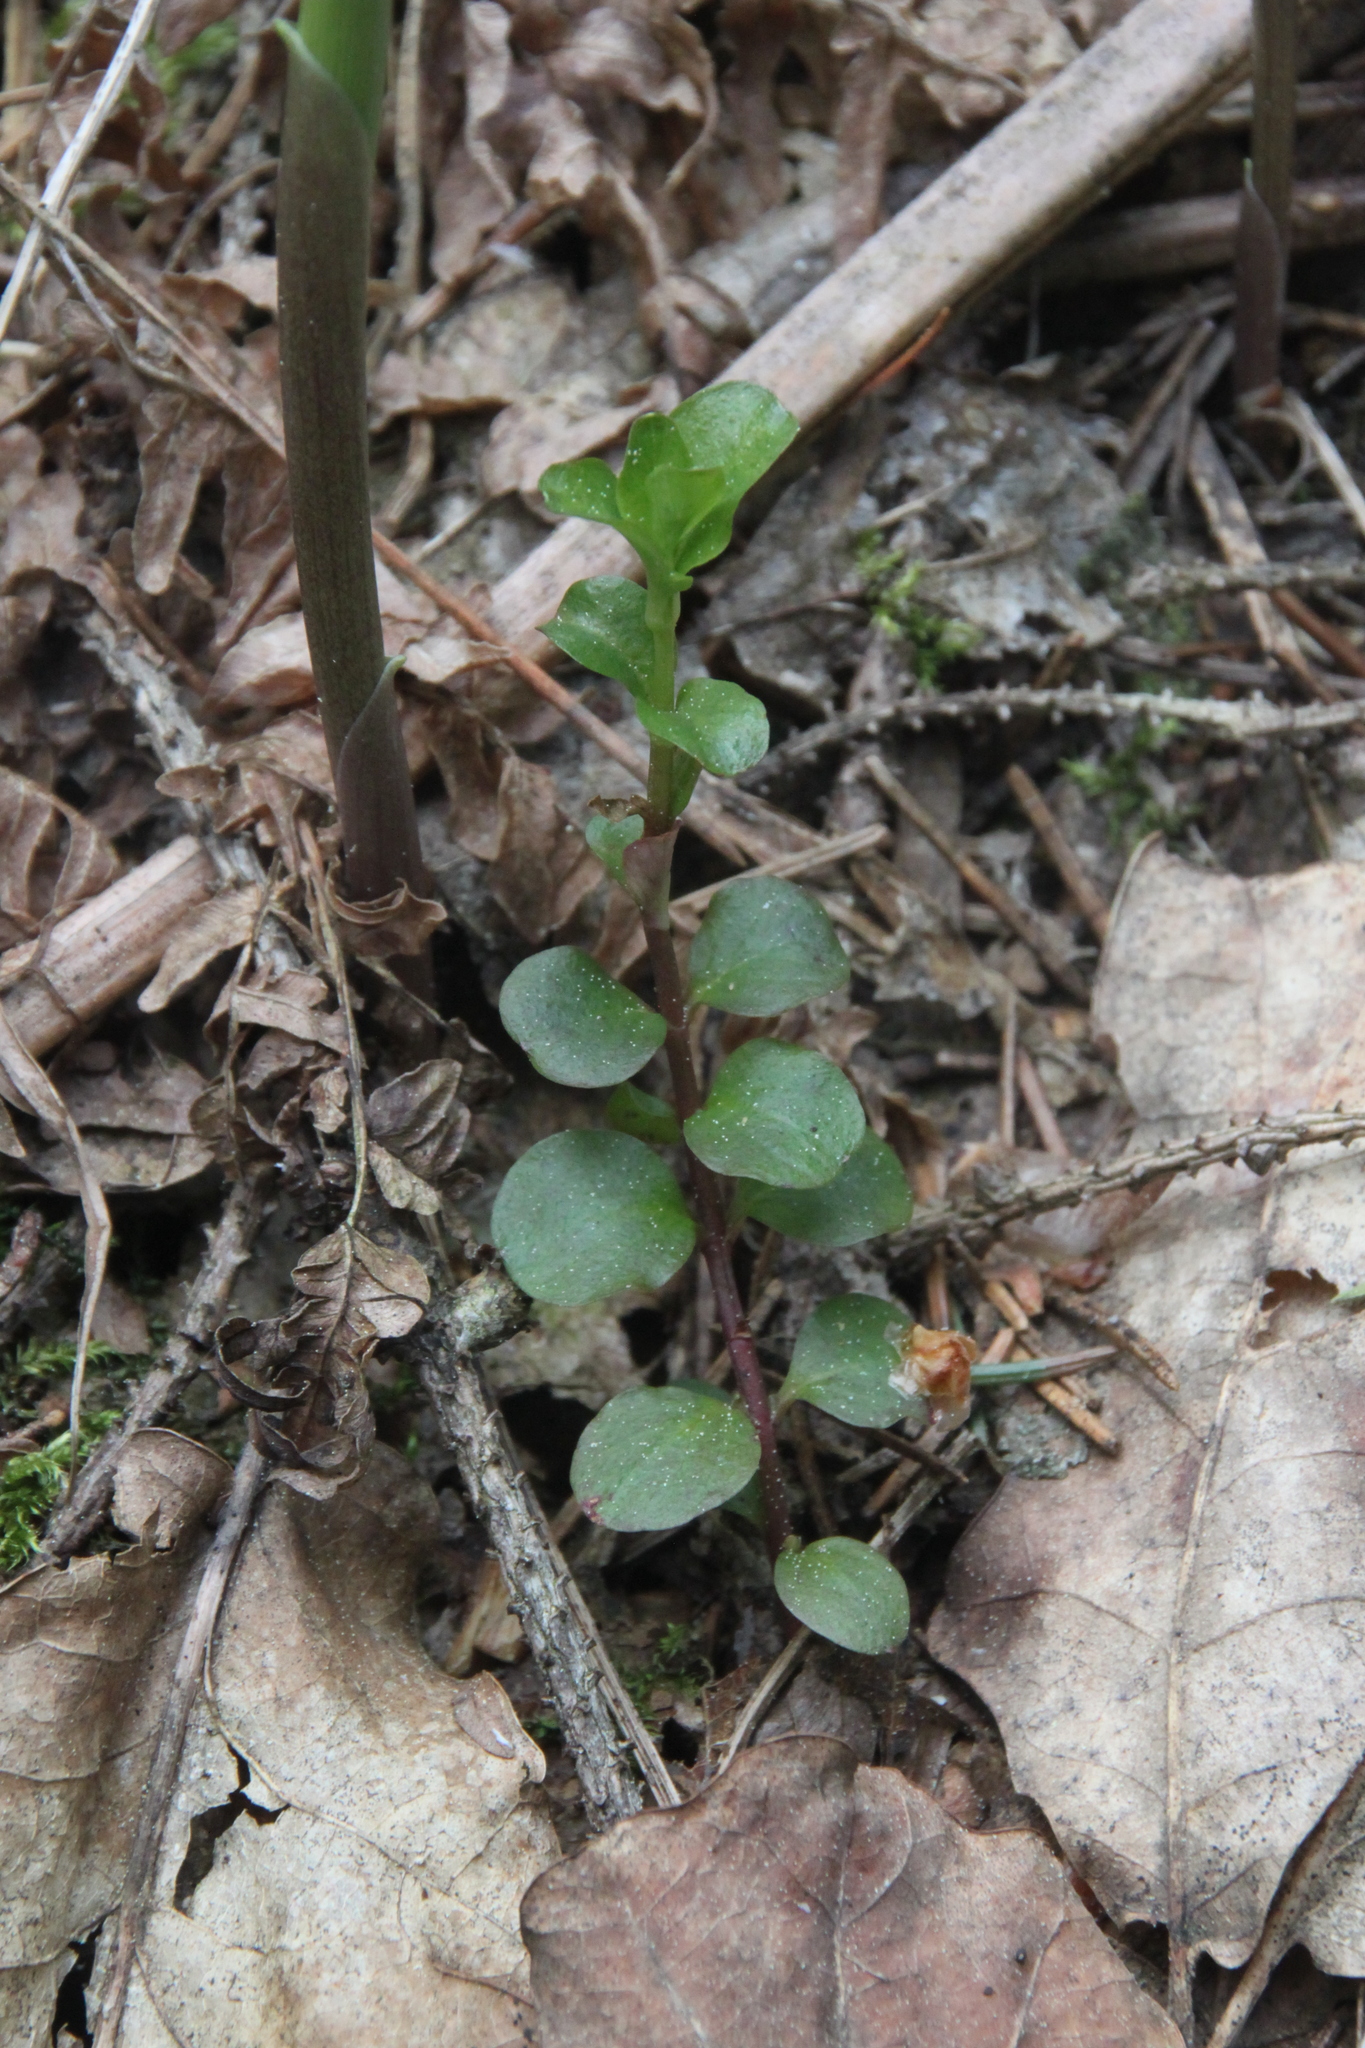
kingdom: Plantae
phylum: Tracheophyta
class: Magnoliopsida
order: Ericales
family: Primulaceae
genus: Lysimachia
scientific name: Lysimachia nummularia
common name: Moneywort
